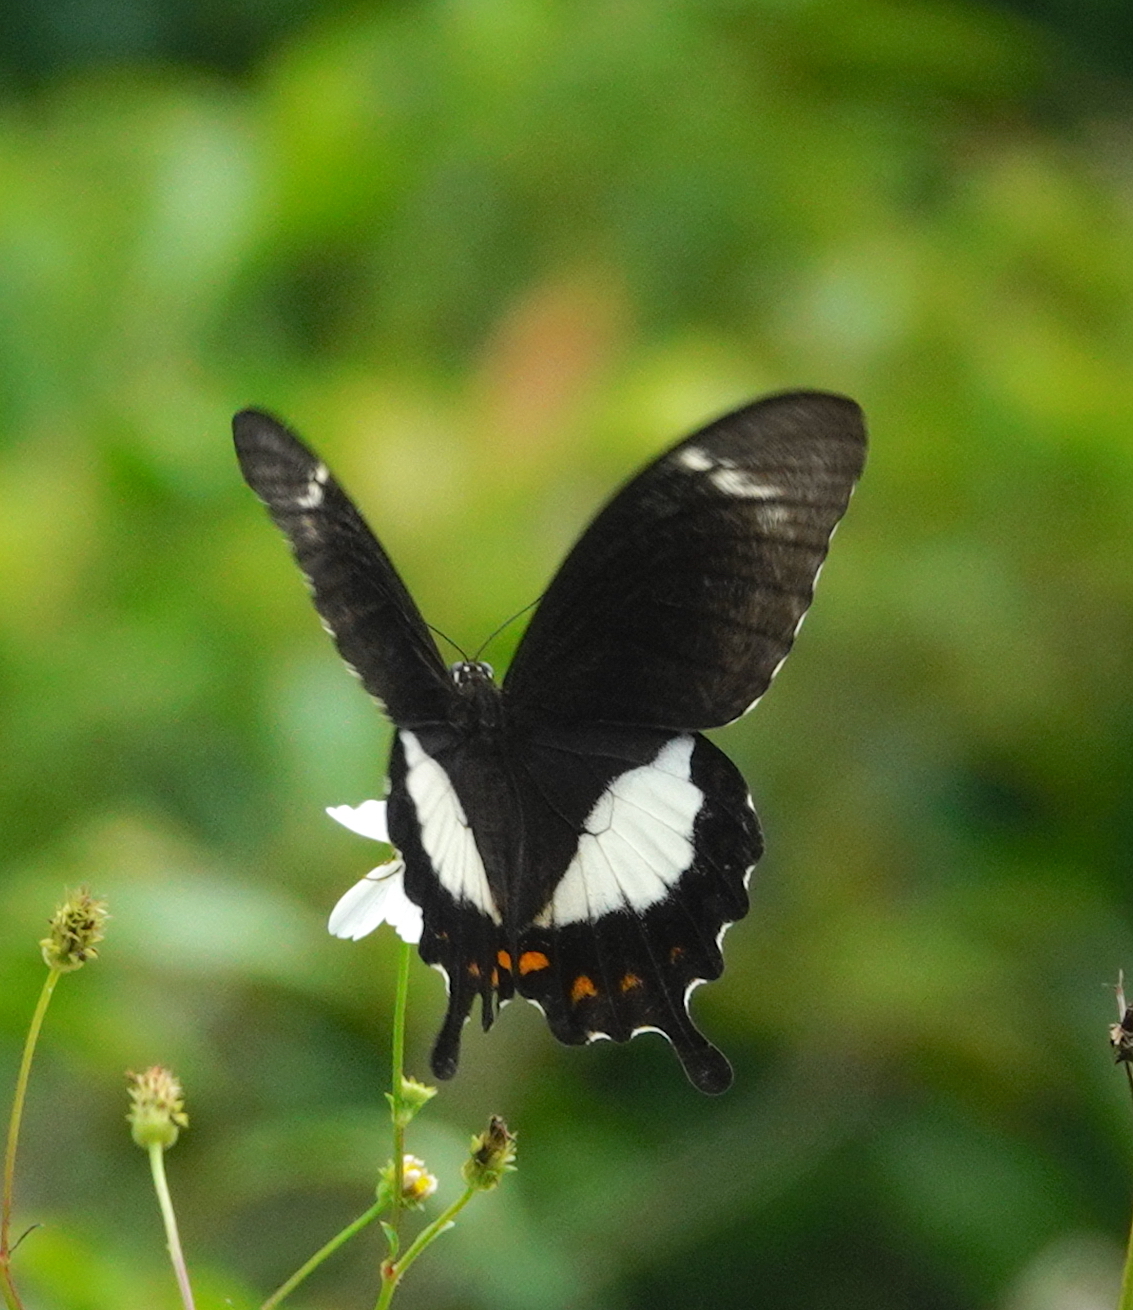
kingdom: Animalia
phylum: Arthropoda
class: Insecta
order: Lepidoptera
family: Papilionidae
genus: Papilio
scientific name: Papilio fuscus
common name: Fuscous swallowtail
